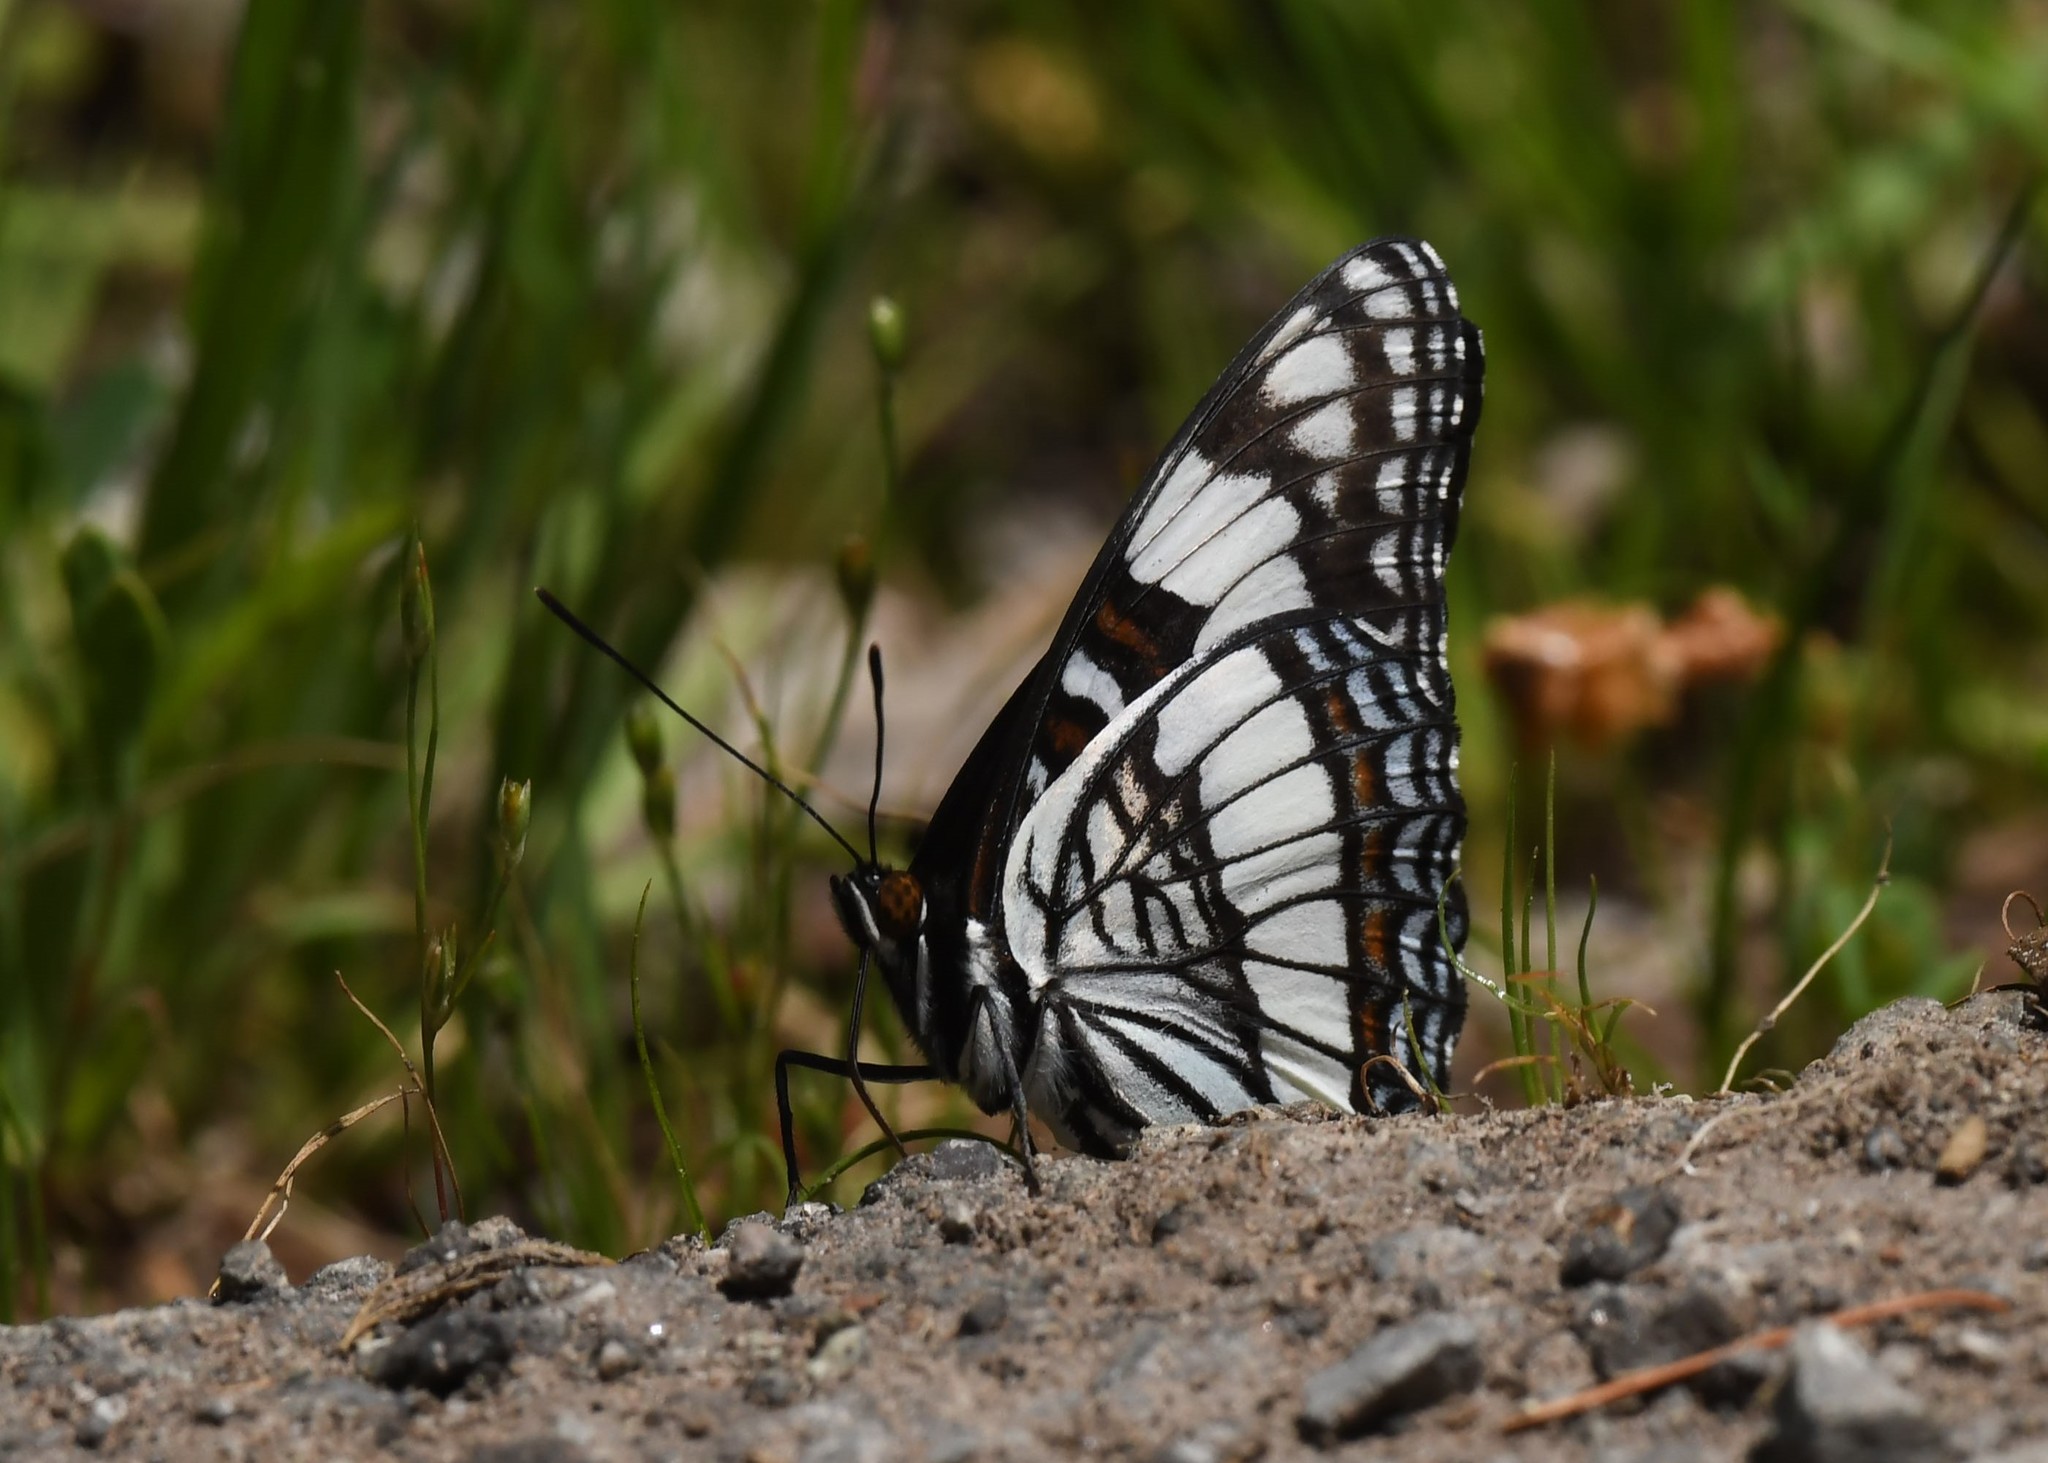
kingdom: Animalia
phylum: Arthropoda
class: Insecta
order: Lepidoptera
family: Nymphalidae
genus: Limenitis
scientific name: Limenitis weidemeyerii
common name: Weidemeyer's admiral
